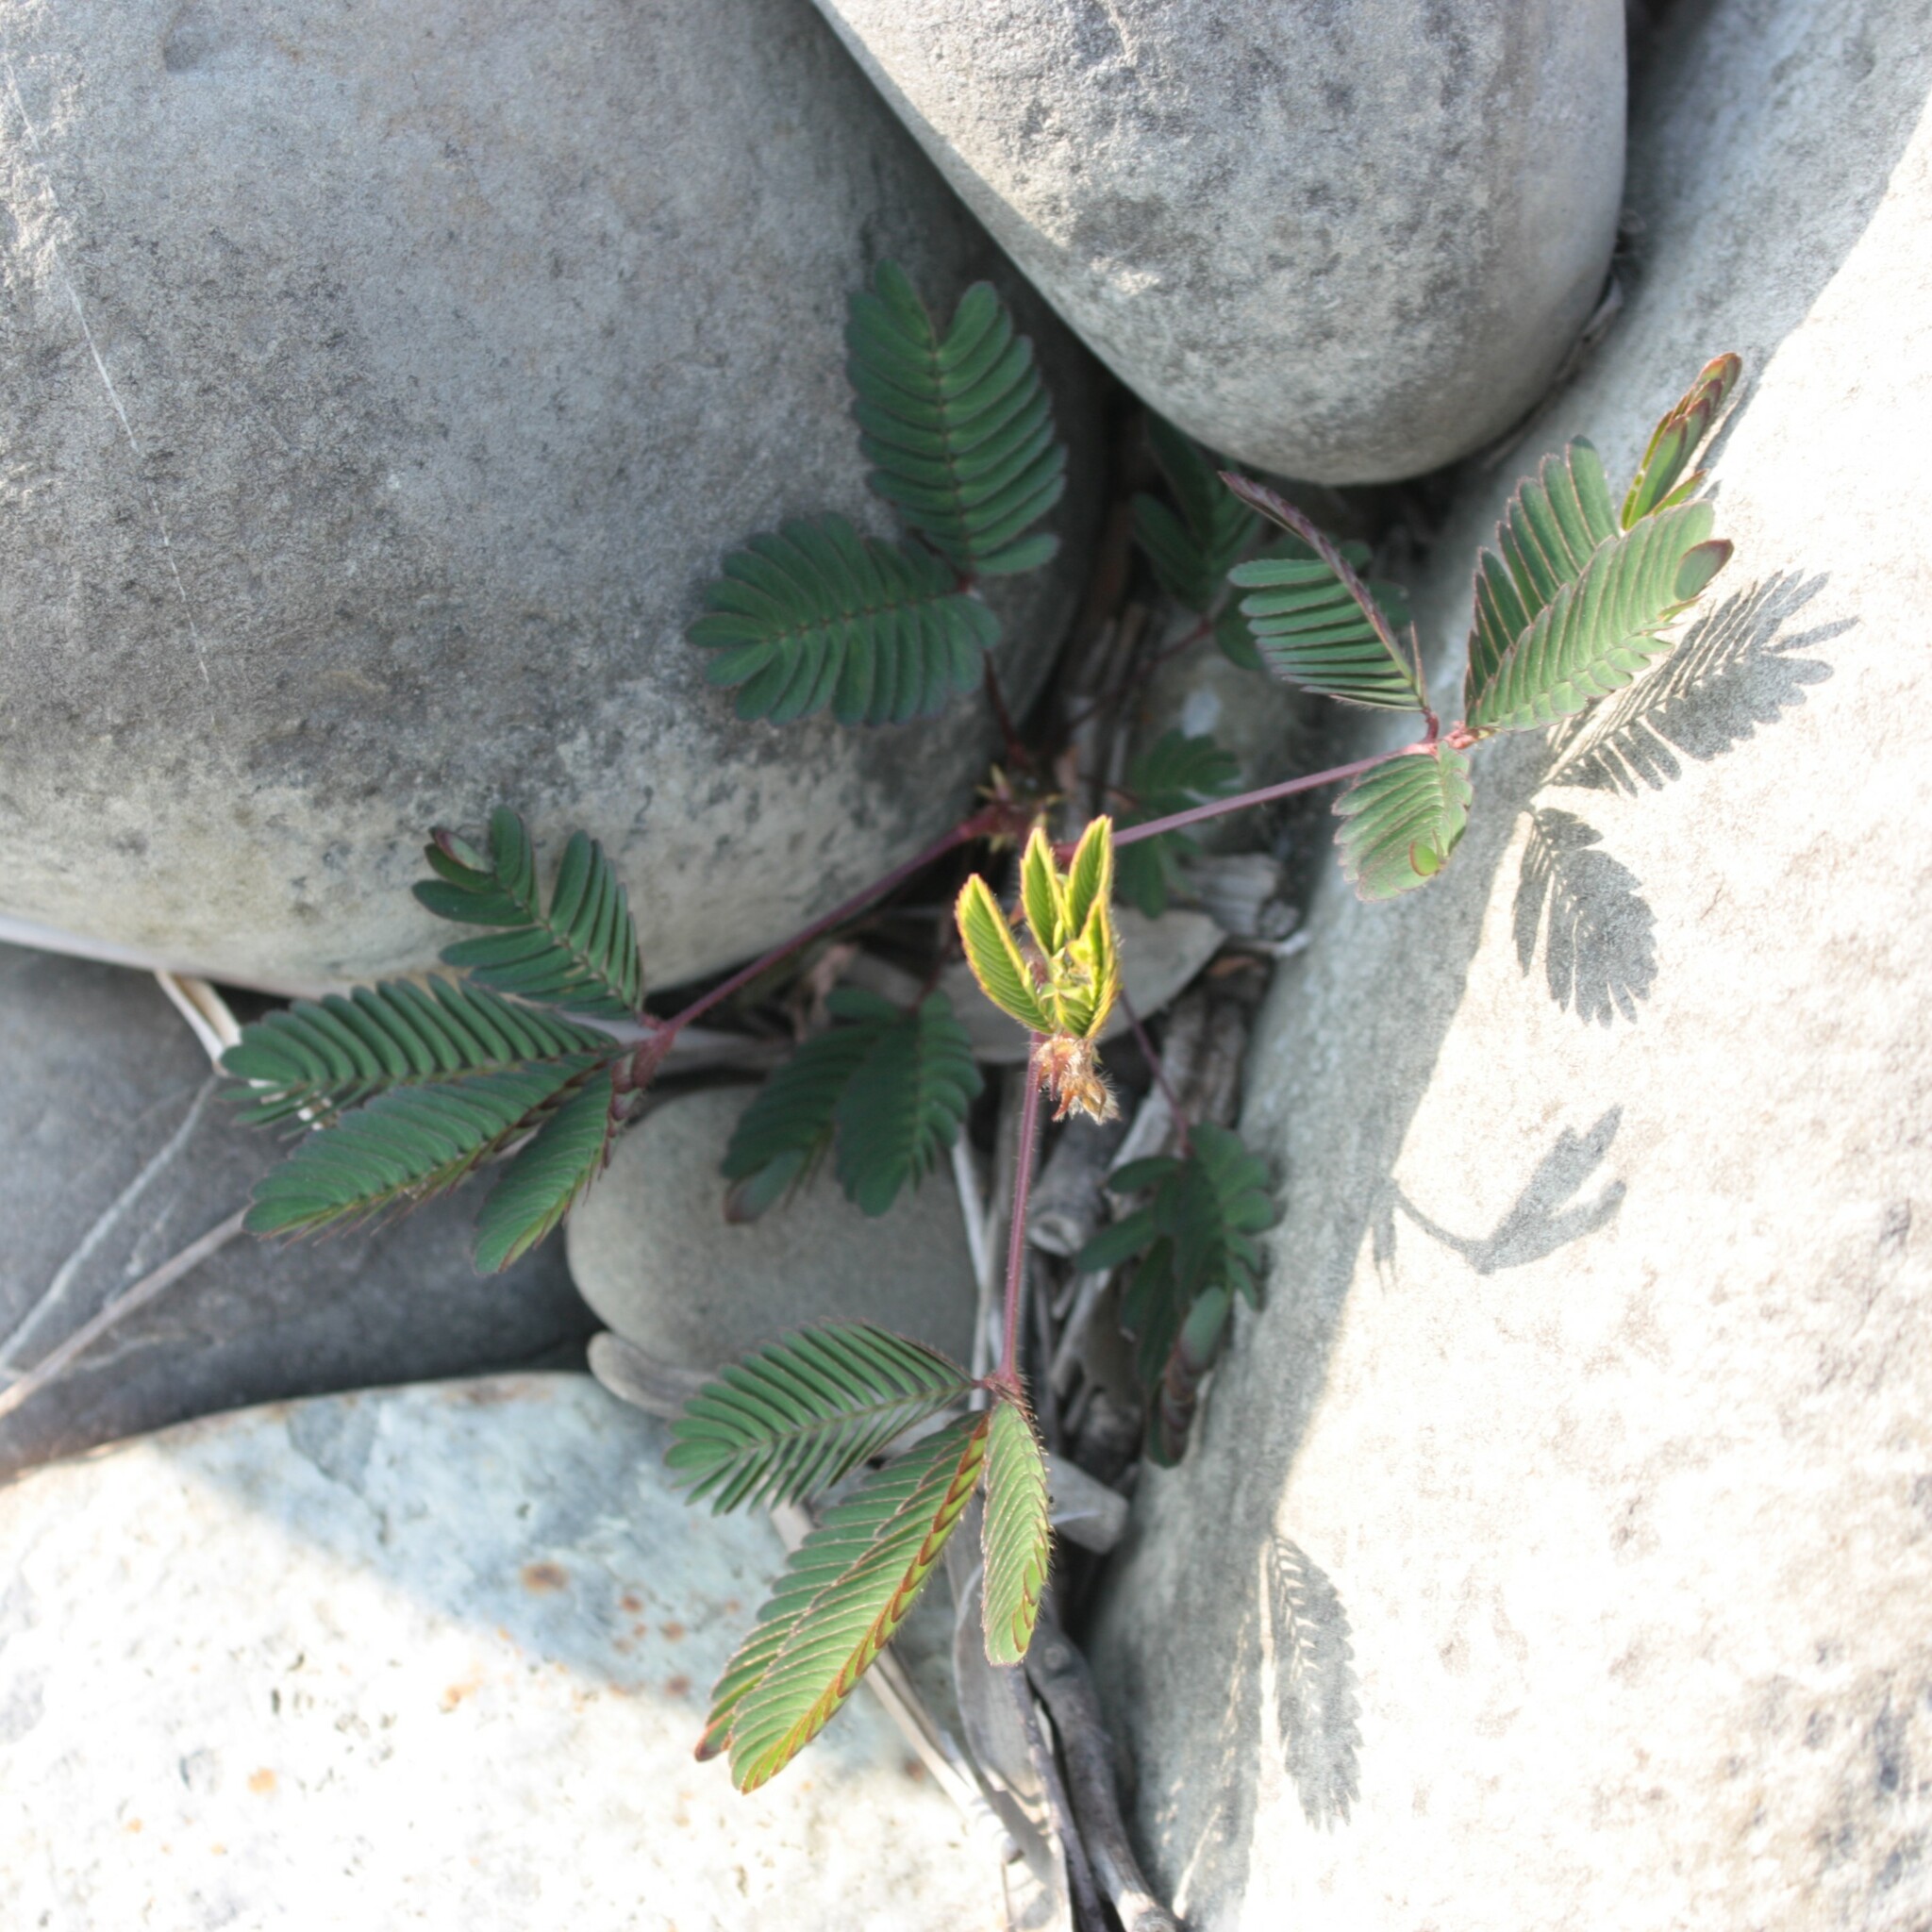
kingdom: Plantae
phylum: Tracheophyta
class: Magnoliopsida
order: Fabales
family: Fabaceae
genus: Mimosa
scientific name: Mimosa pudica
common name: Sensitive plant
